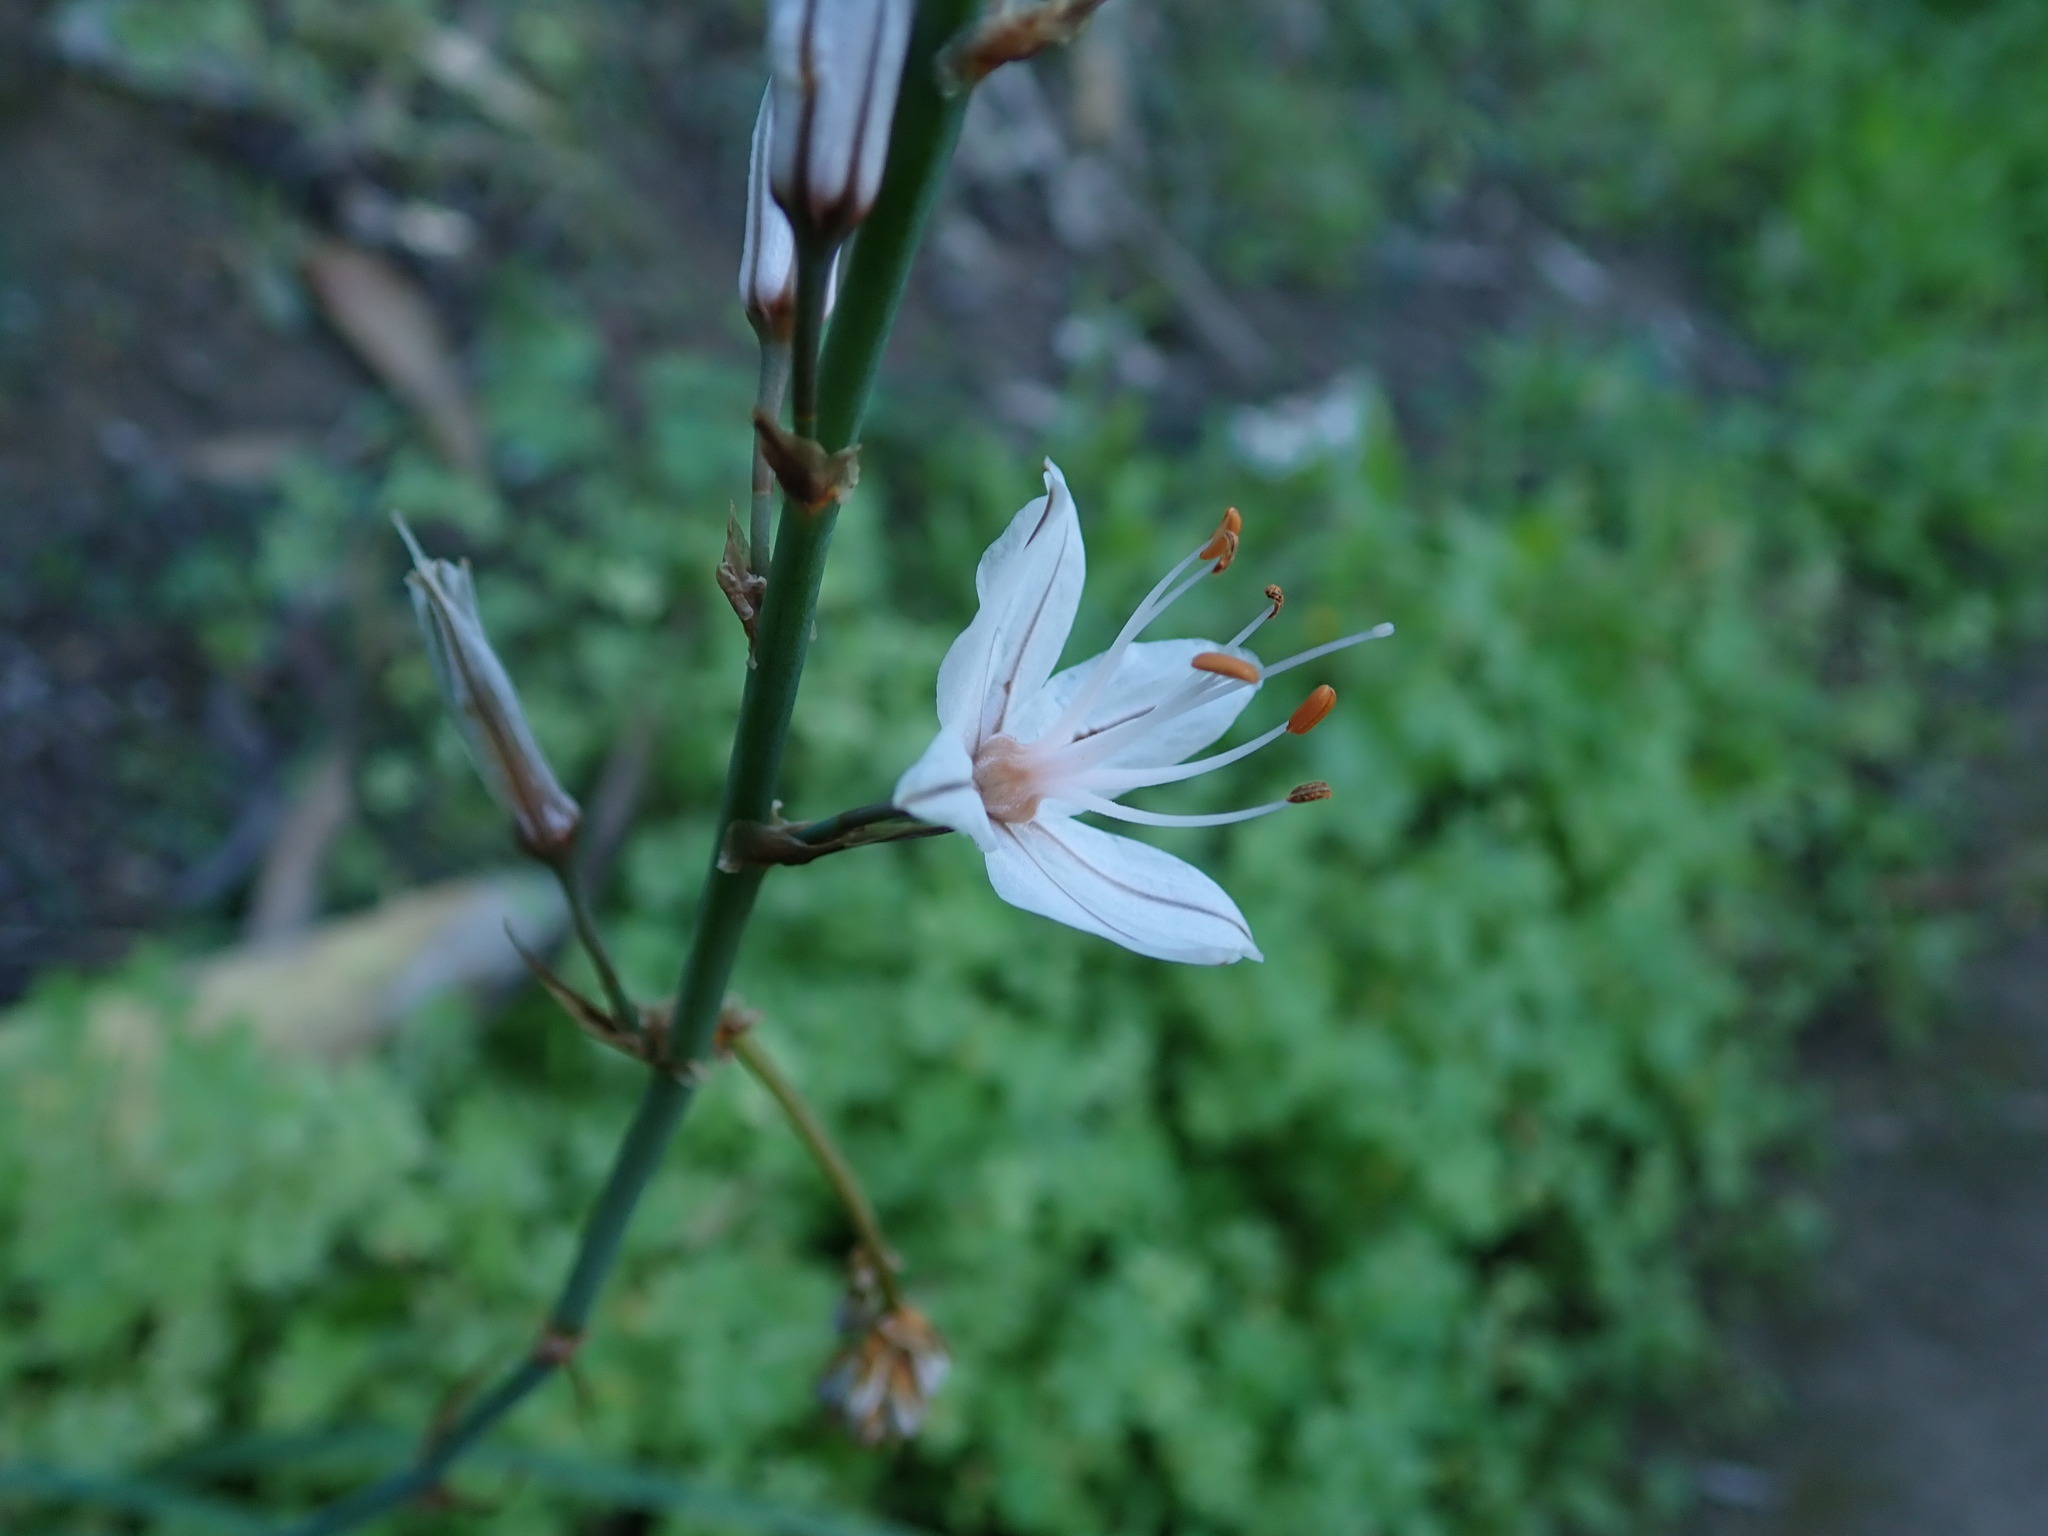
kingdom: Plantae
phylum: Tracheophyta
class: Liliopsida
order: Asparagales
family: Asphodelaceae
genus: Asphodelus
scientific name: Asphodelus ramosus
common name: Silverrod
